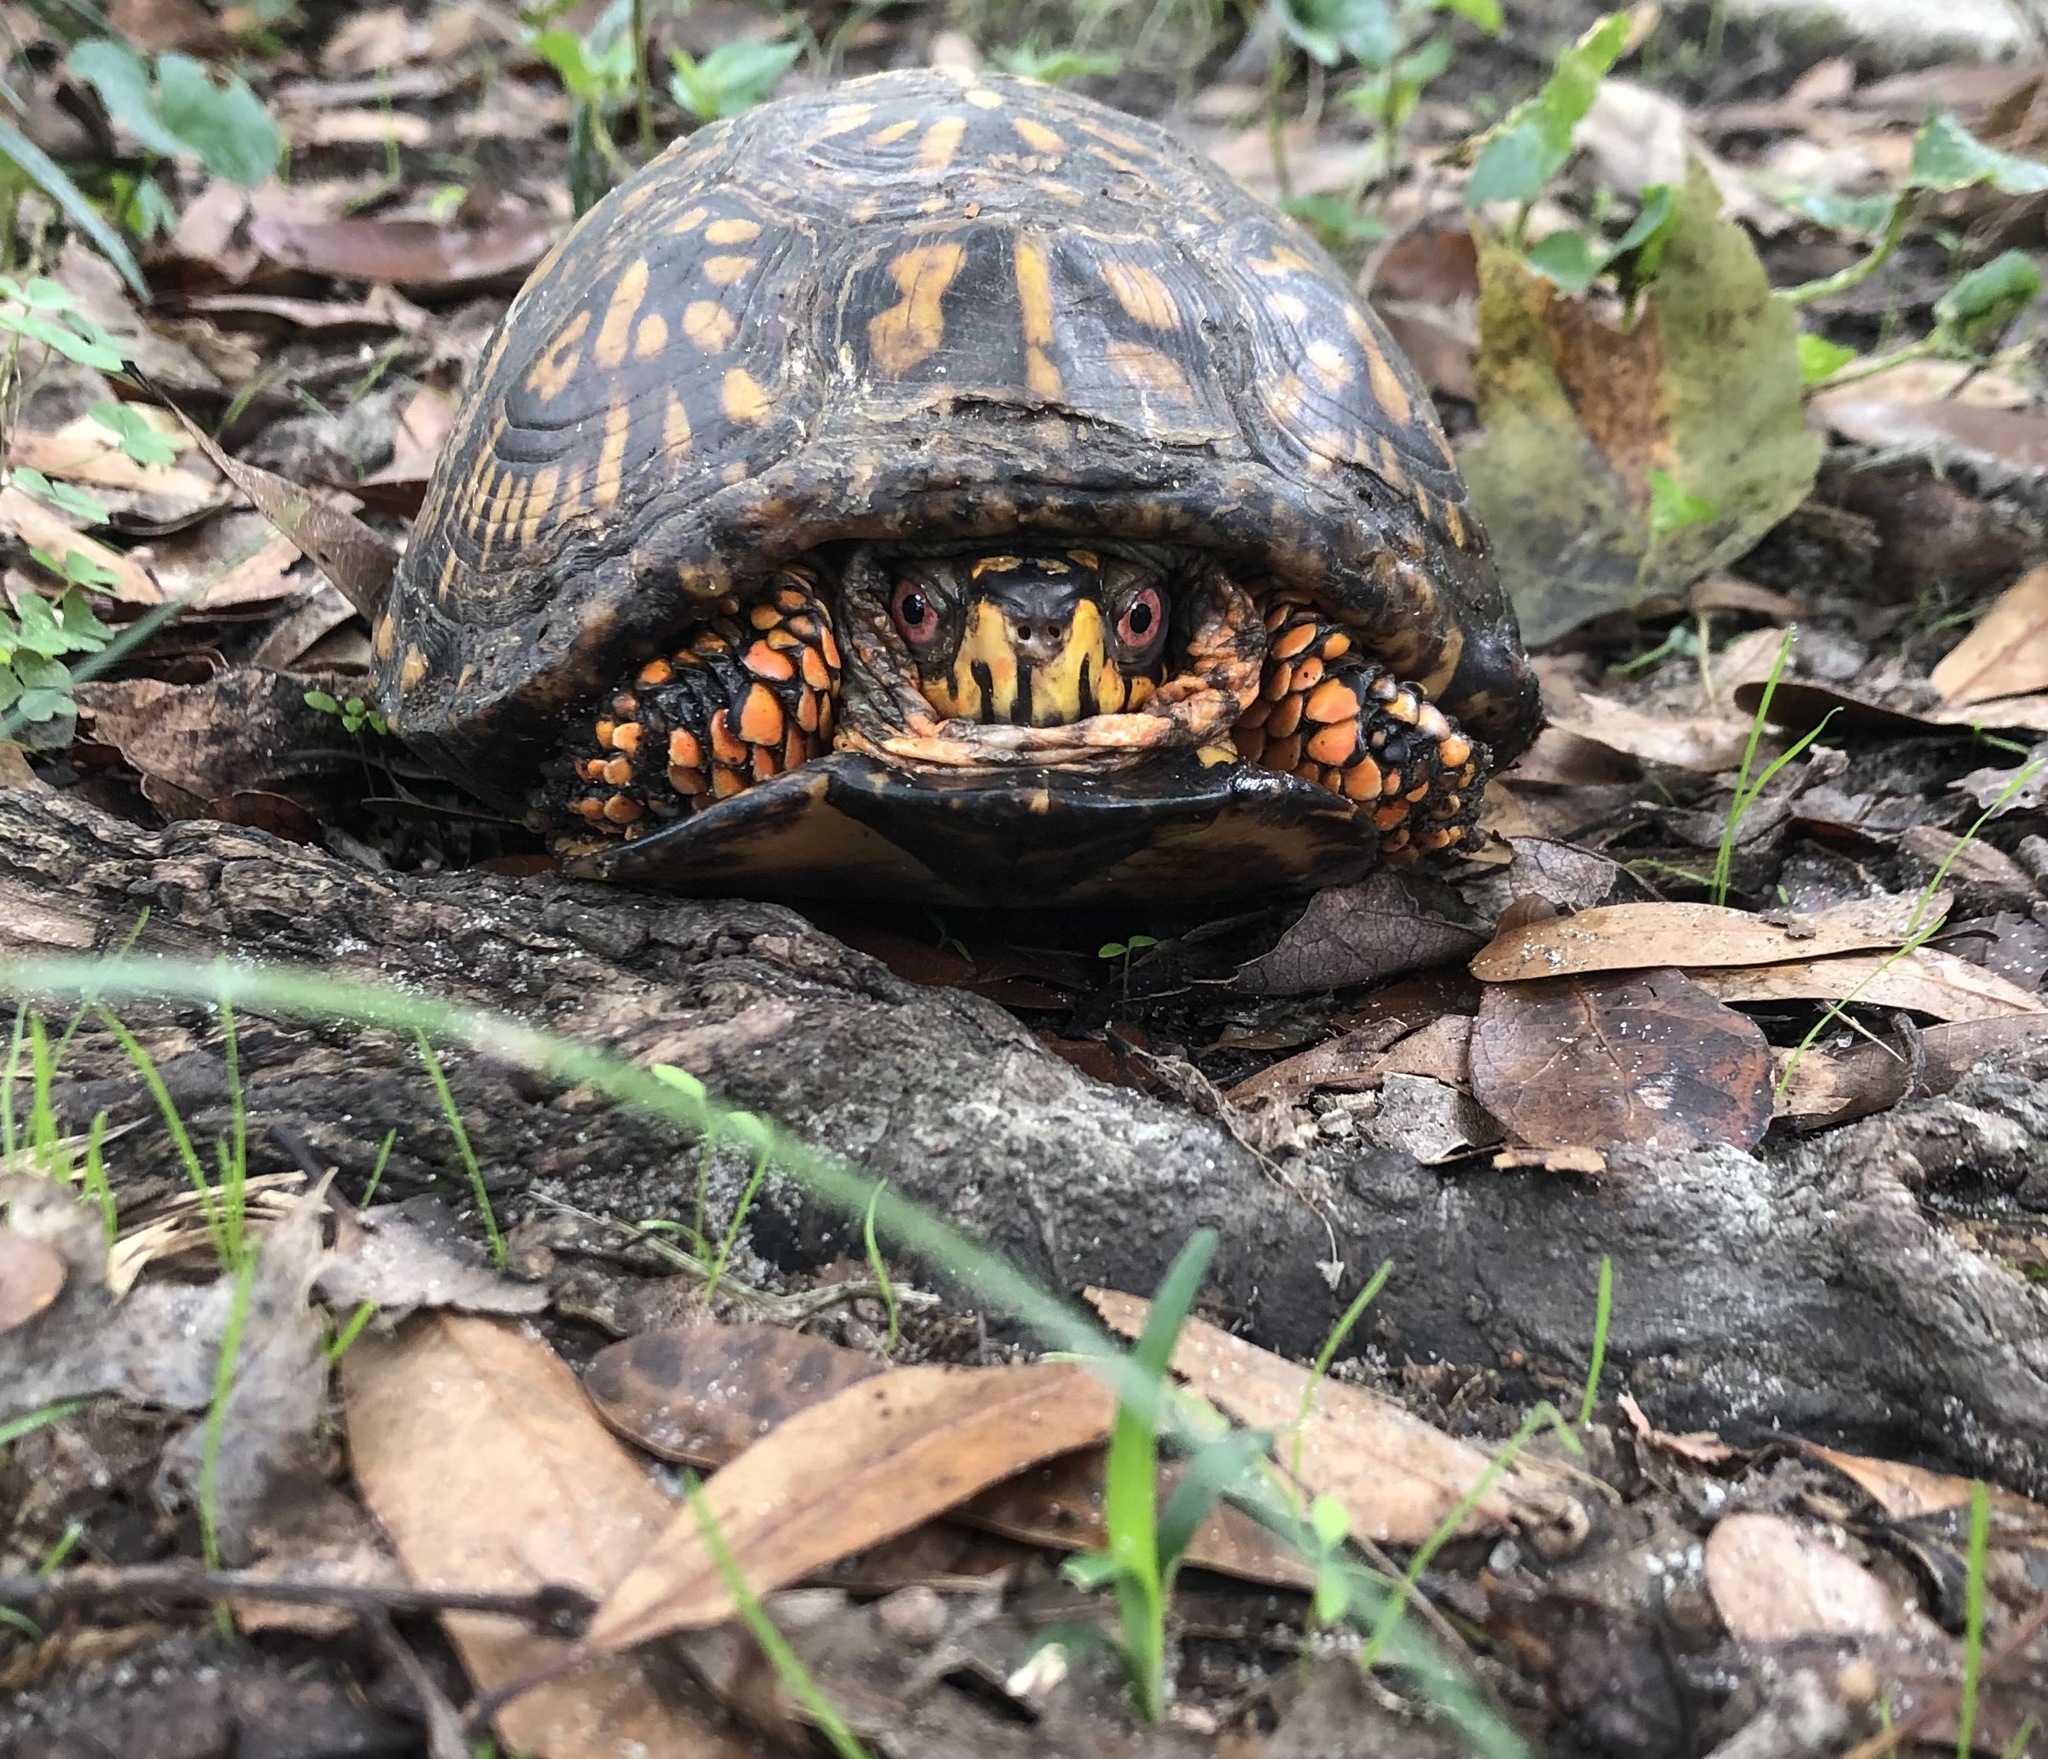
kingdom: Animalia
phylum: Chordata
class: Testudines
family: Emydidae
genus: Terrapene
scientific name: Terrapene carolina
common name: Common box turtle
